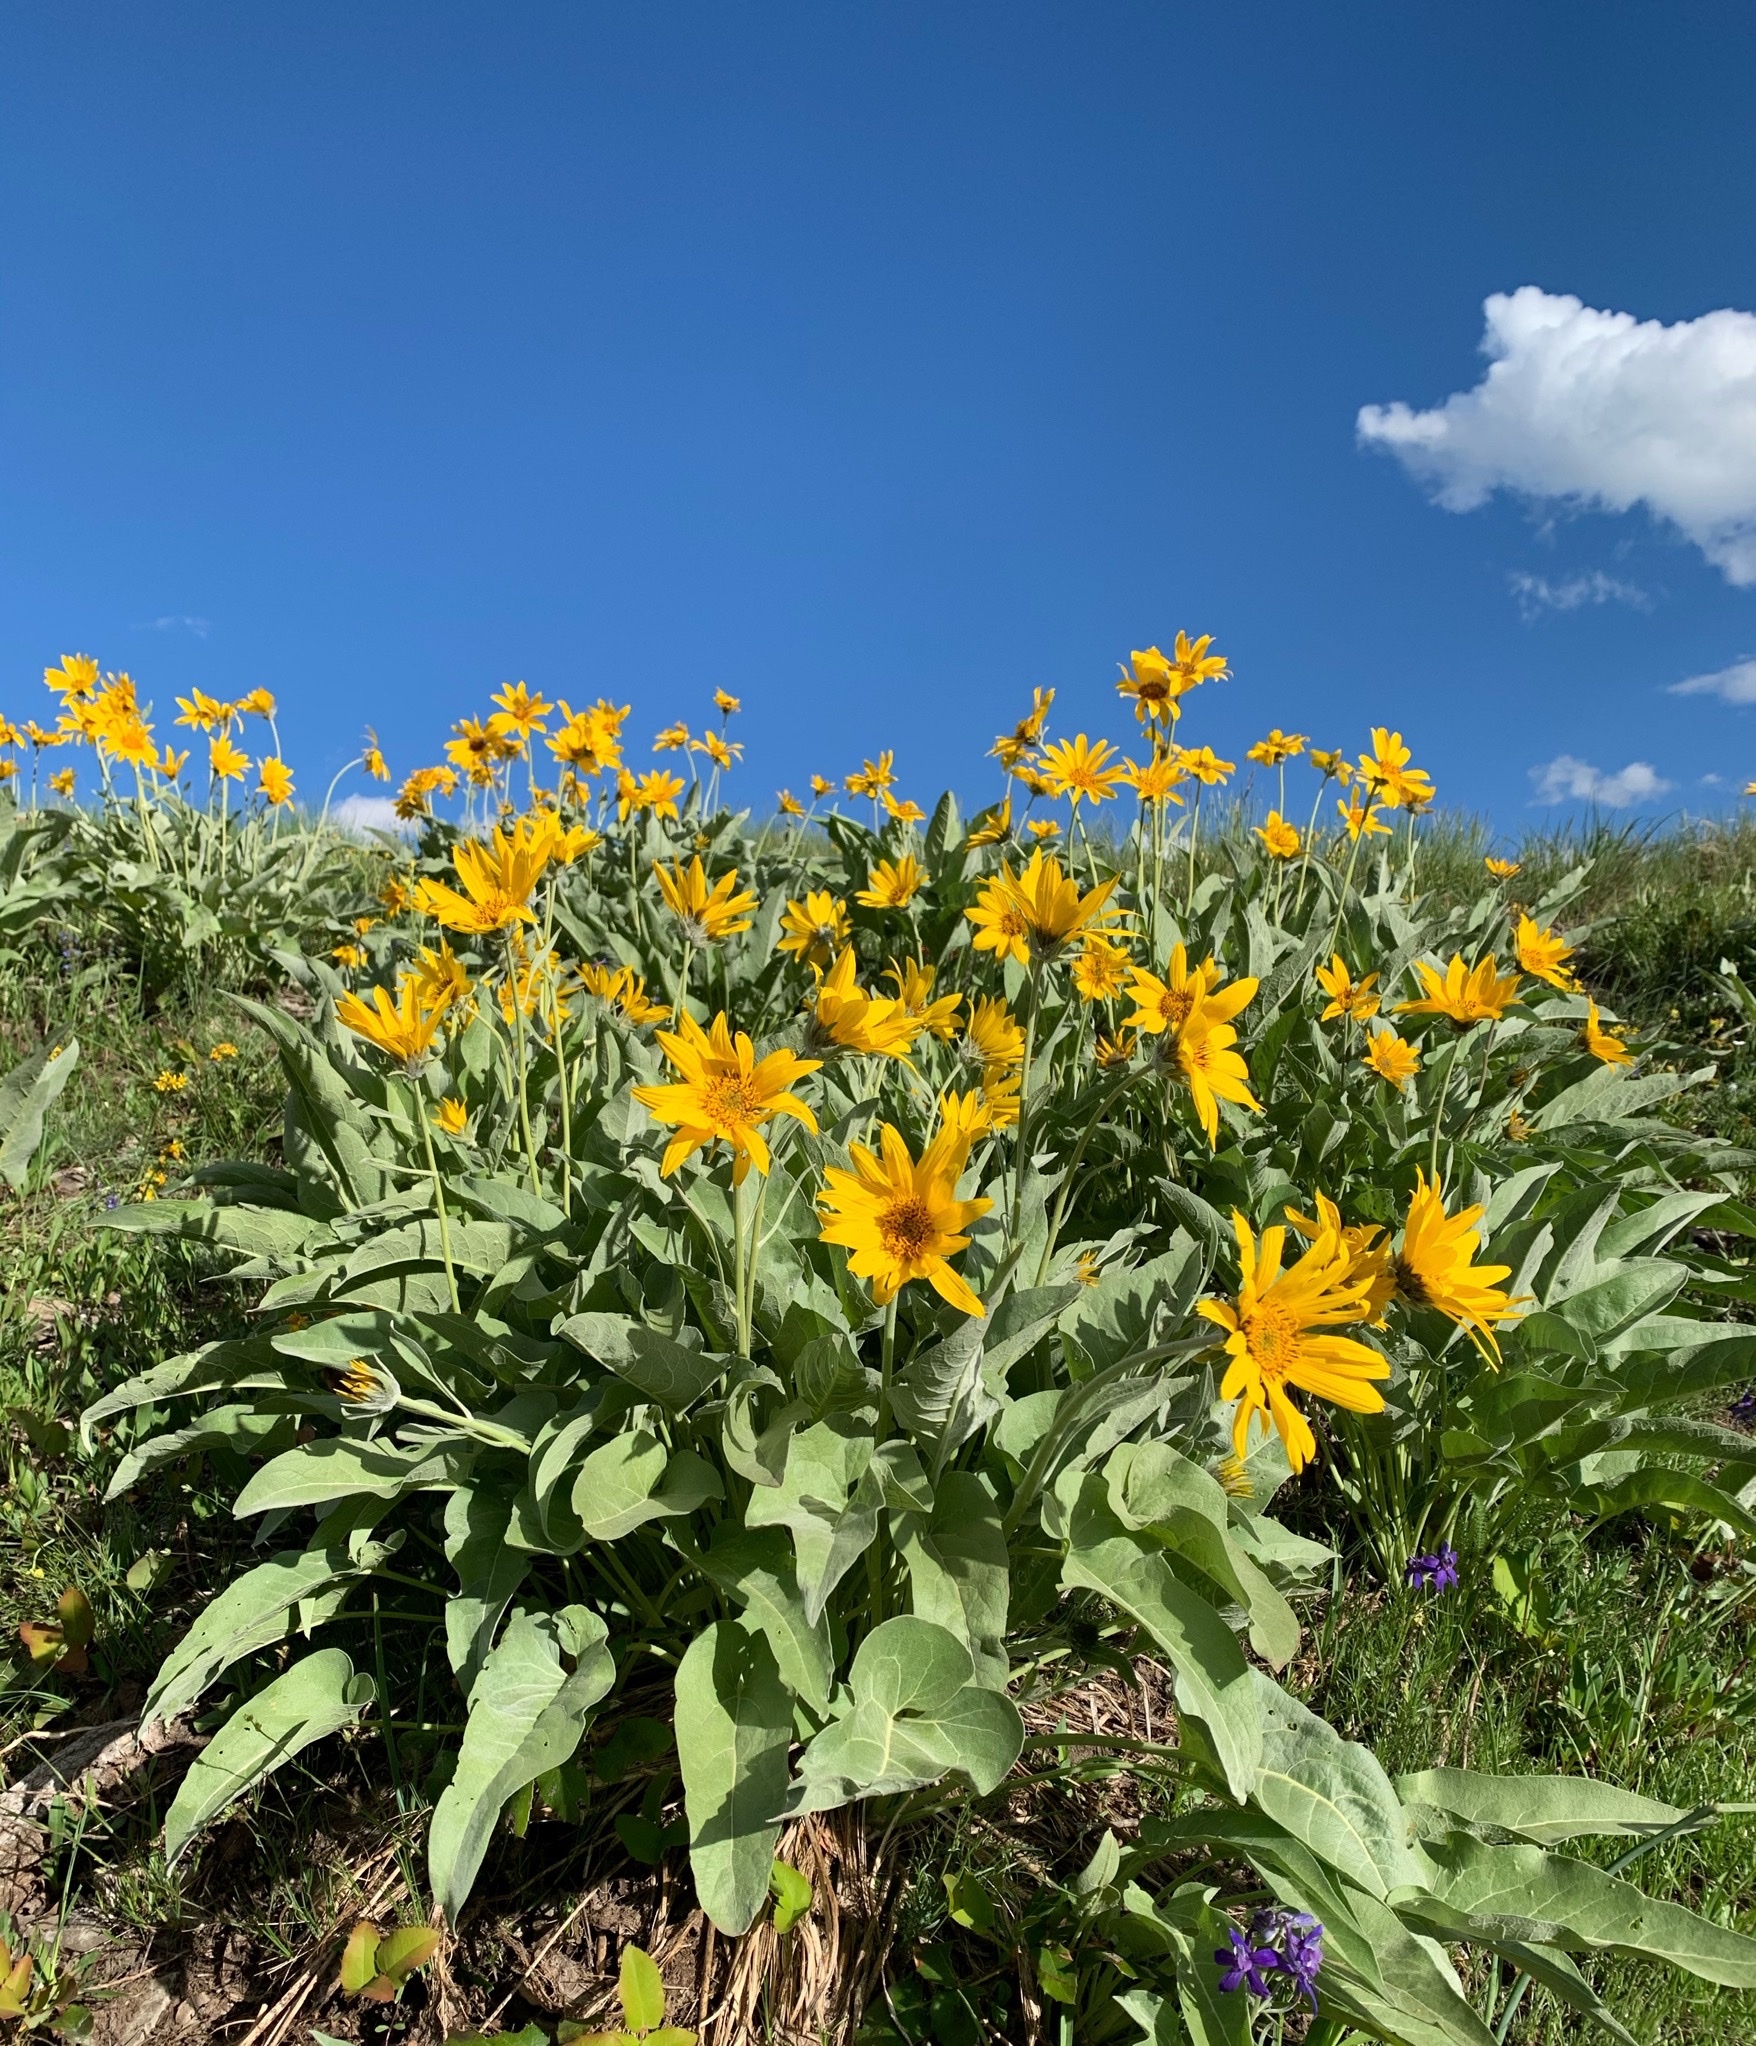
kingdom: Plantae
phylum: Tracheophyta
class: Magnoliopsida
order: Asterales
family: Asteraceae
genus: Wyethia
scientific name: Wyethia sagittata
